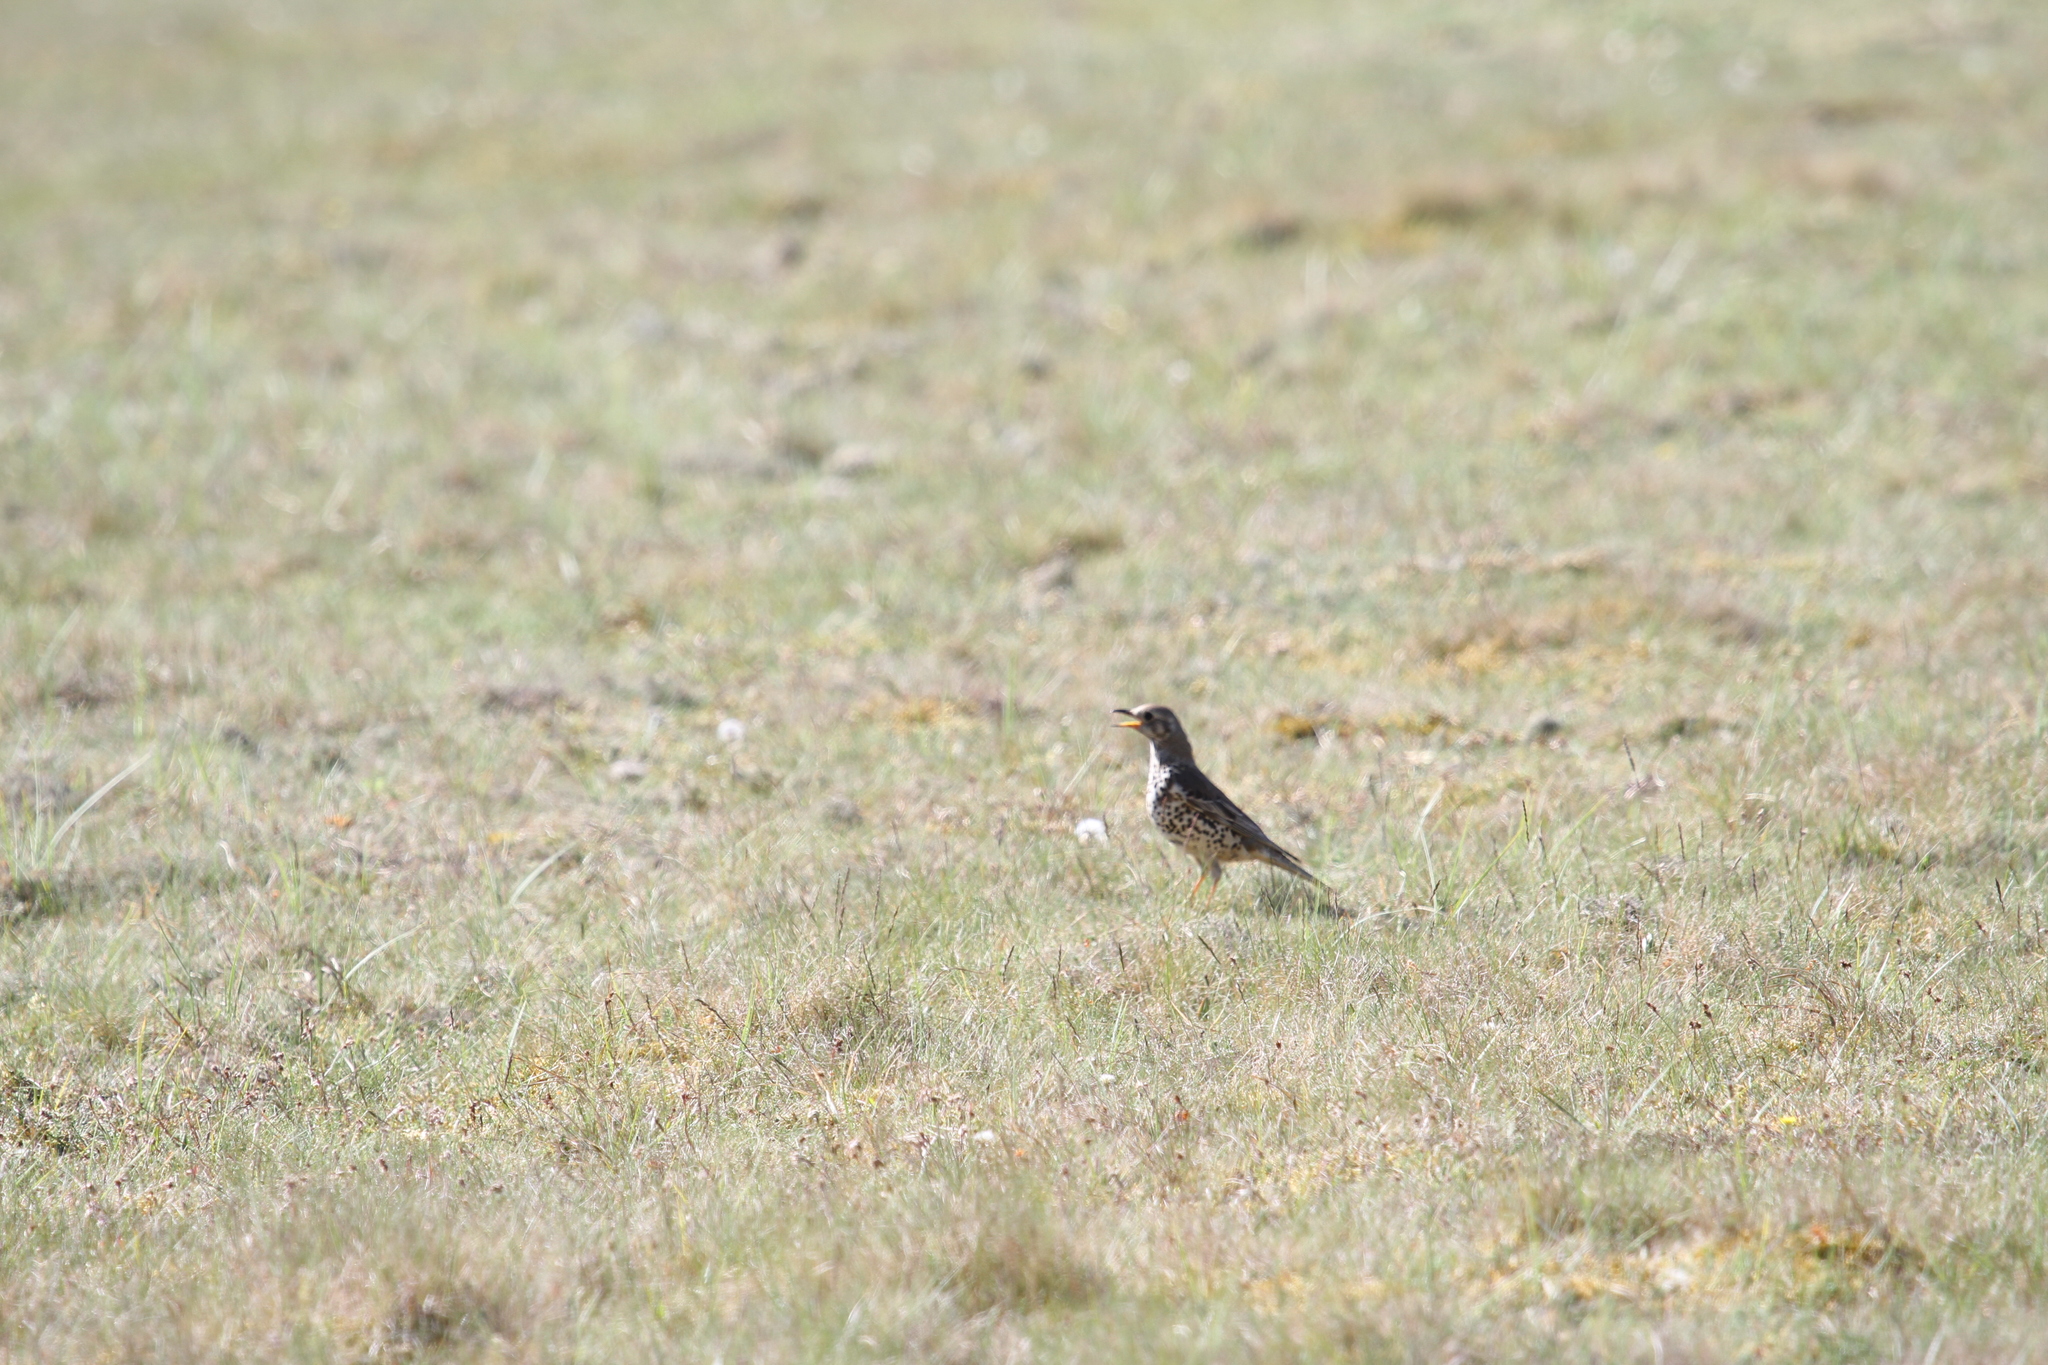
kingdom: Animalia
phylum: Chordata
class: Aves
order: Passeriformes
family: Turdidae
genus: Turdus
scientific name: Turdus viscivorus
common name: Mistle thrush
